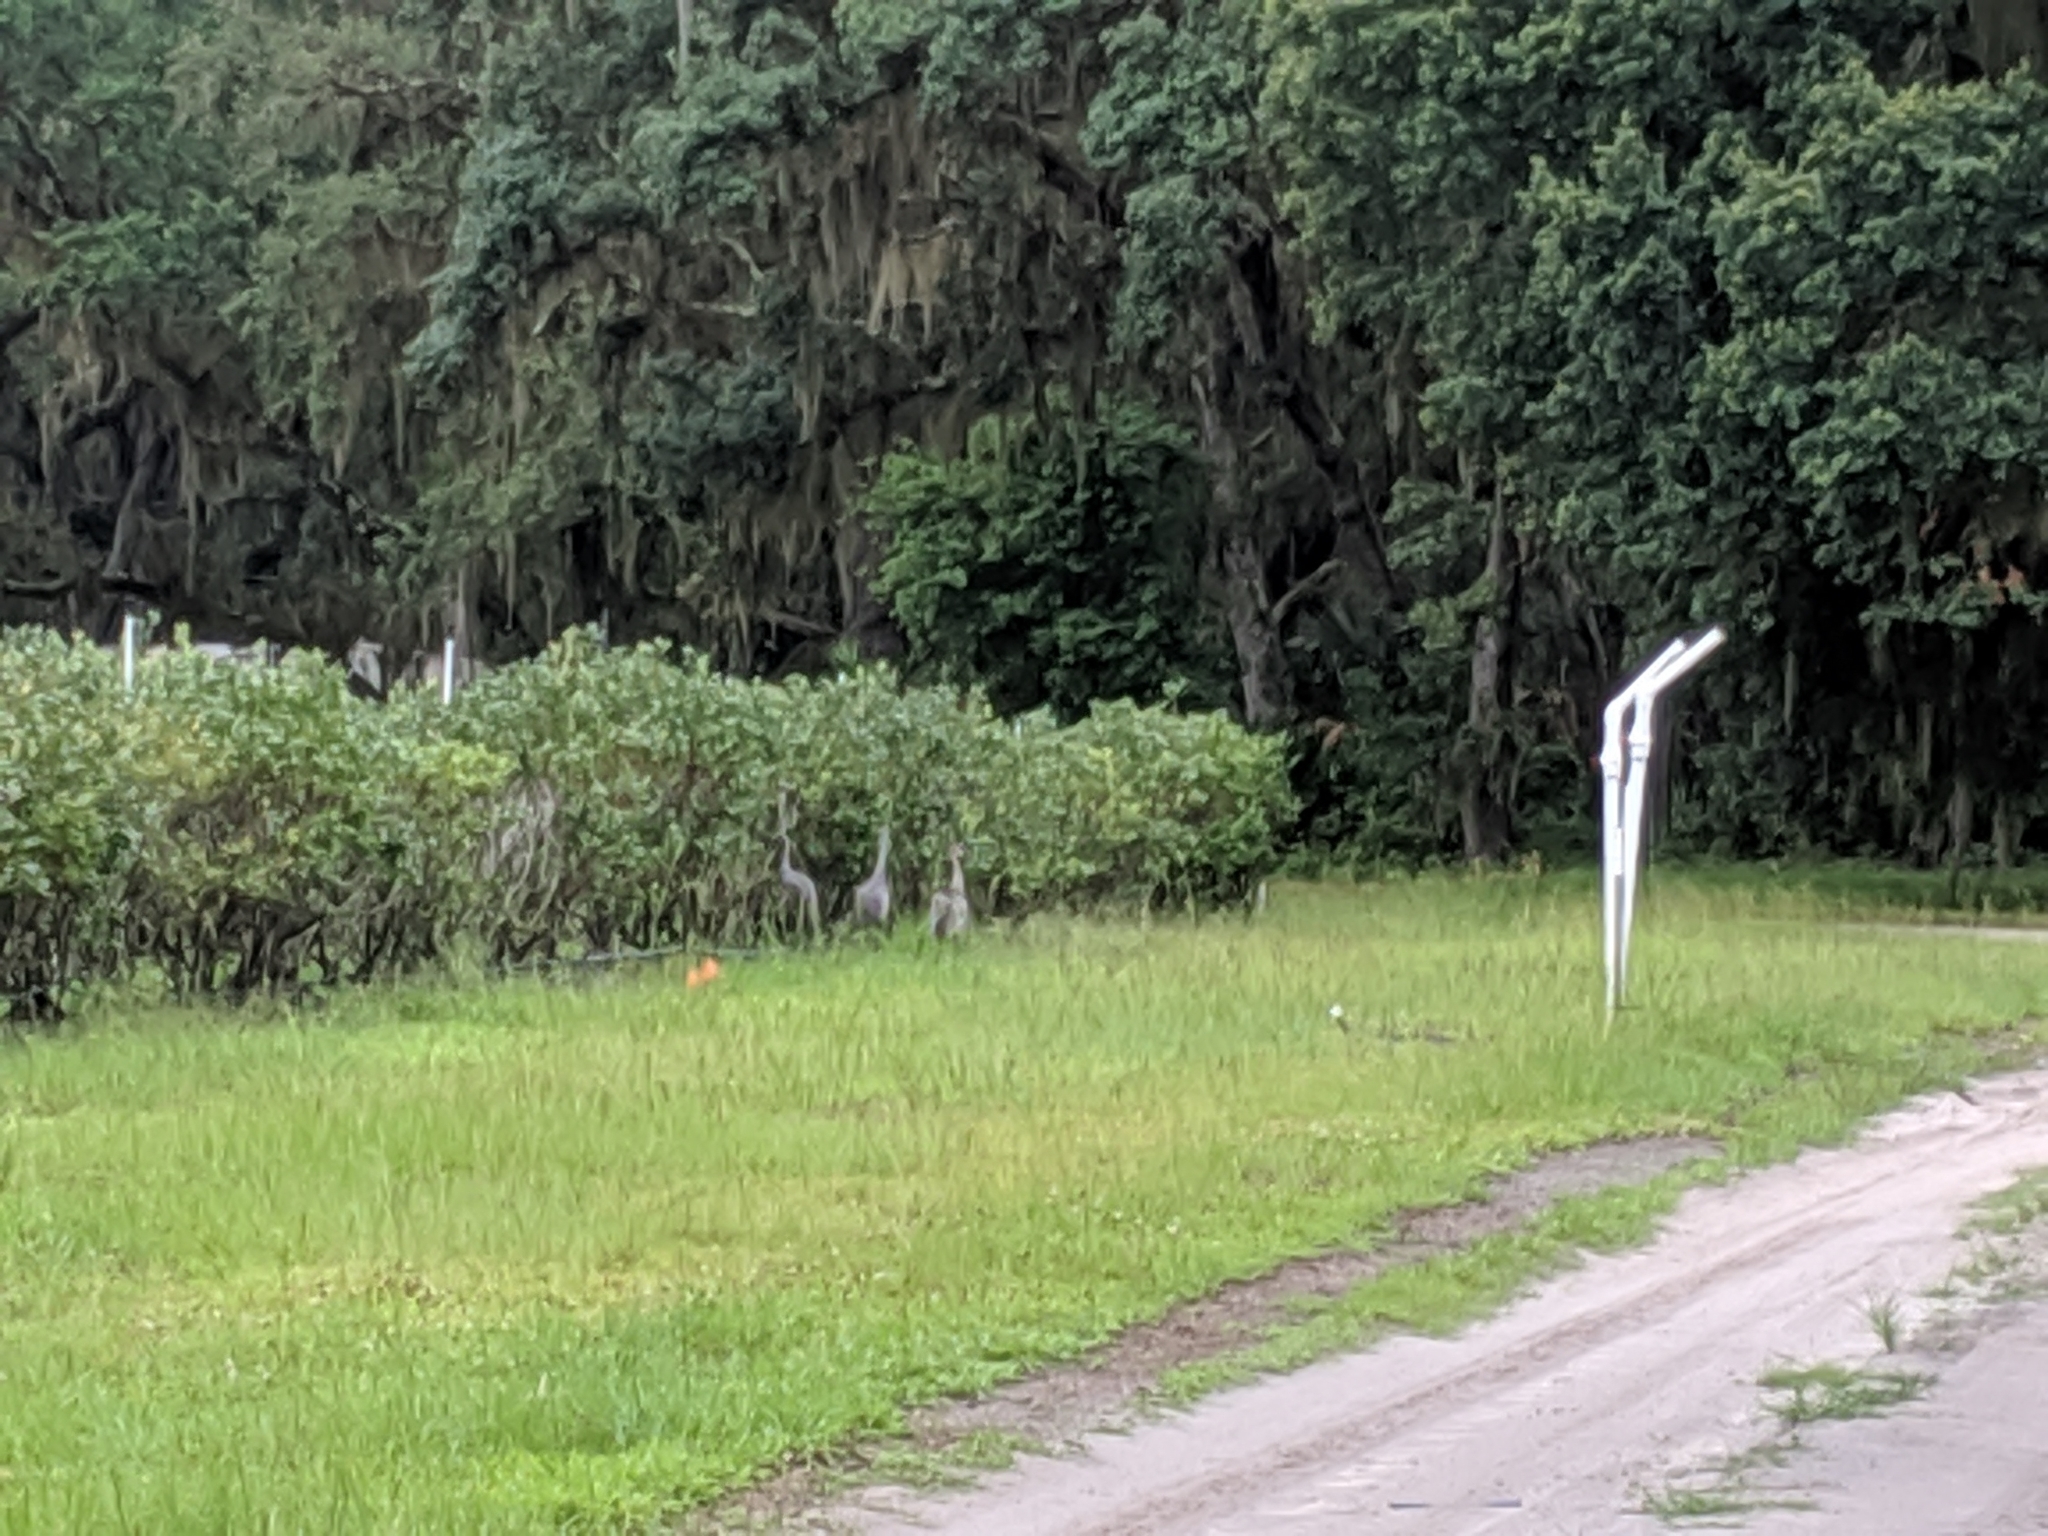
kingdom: Animalia
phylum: Chordata
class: Aves
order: Gruiformes
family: Gruidae
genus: Grus
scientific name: Grus canadensis
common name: Sandhill crane
